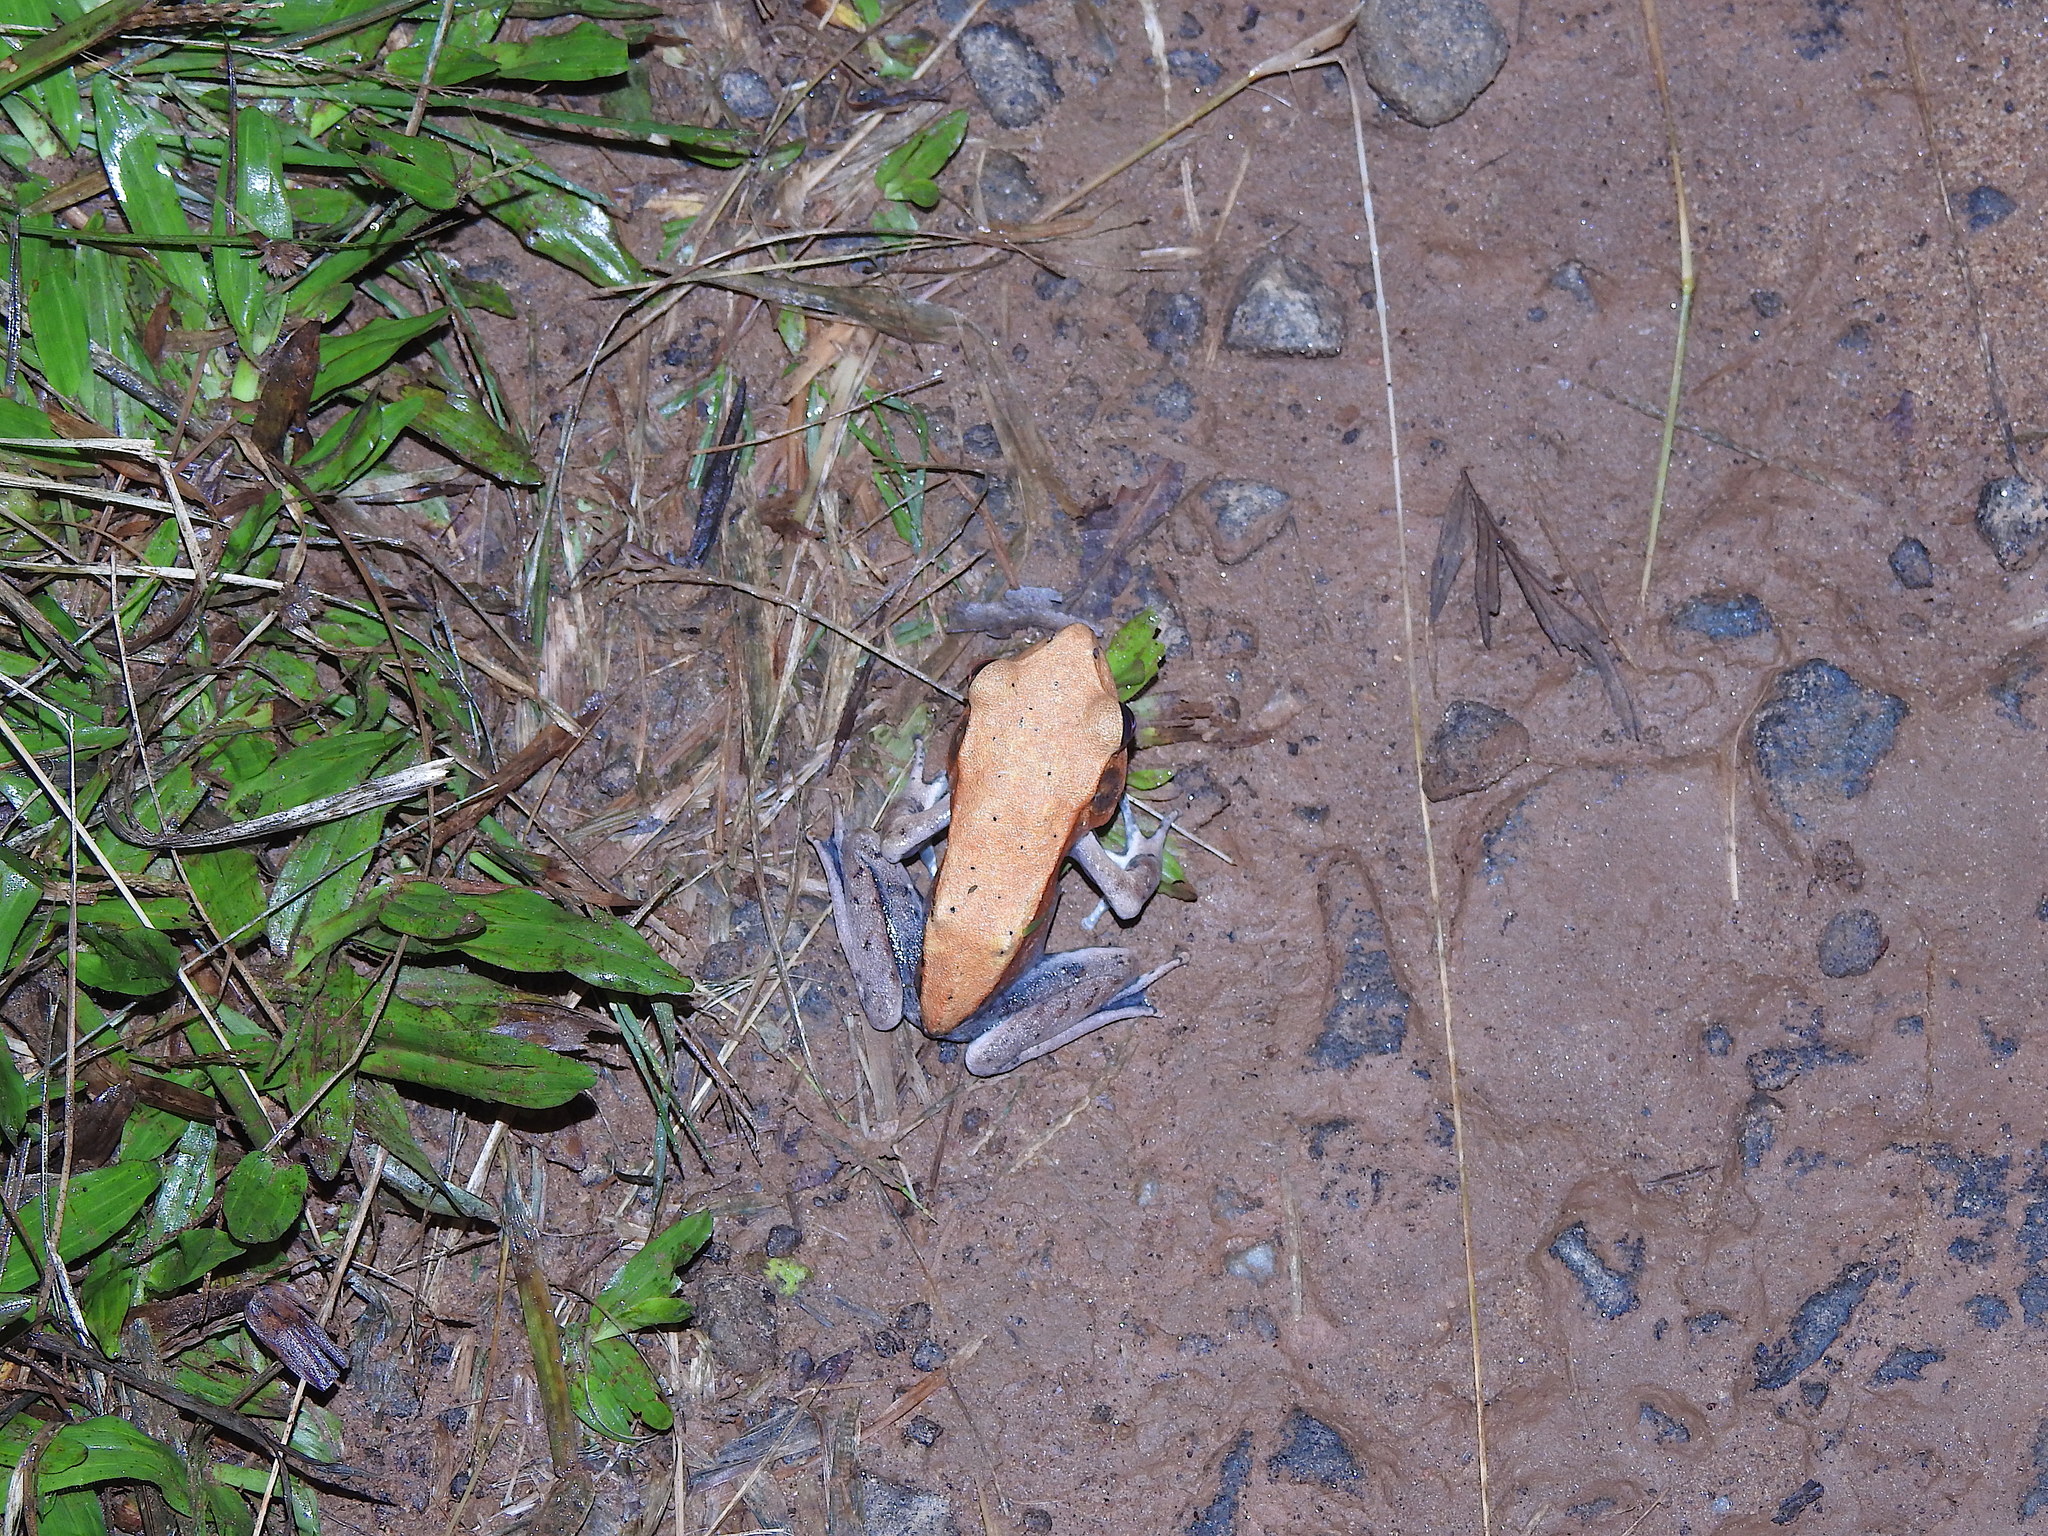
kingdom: Animalia
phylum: Chordata
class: Amphibia
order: Anura
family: Ranidae
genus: Clinotarsus
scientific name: Clinotarsus curtipes
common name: Bicoloured frog
